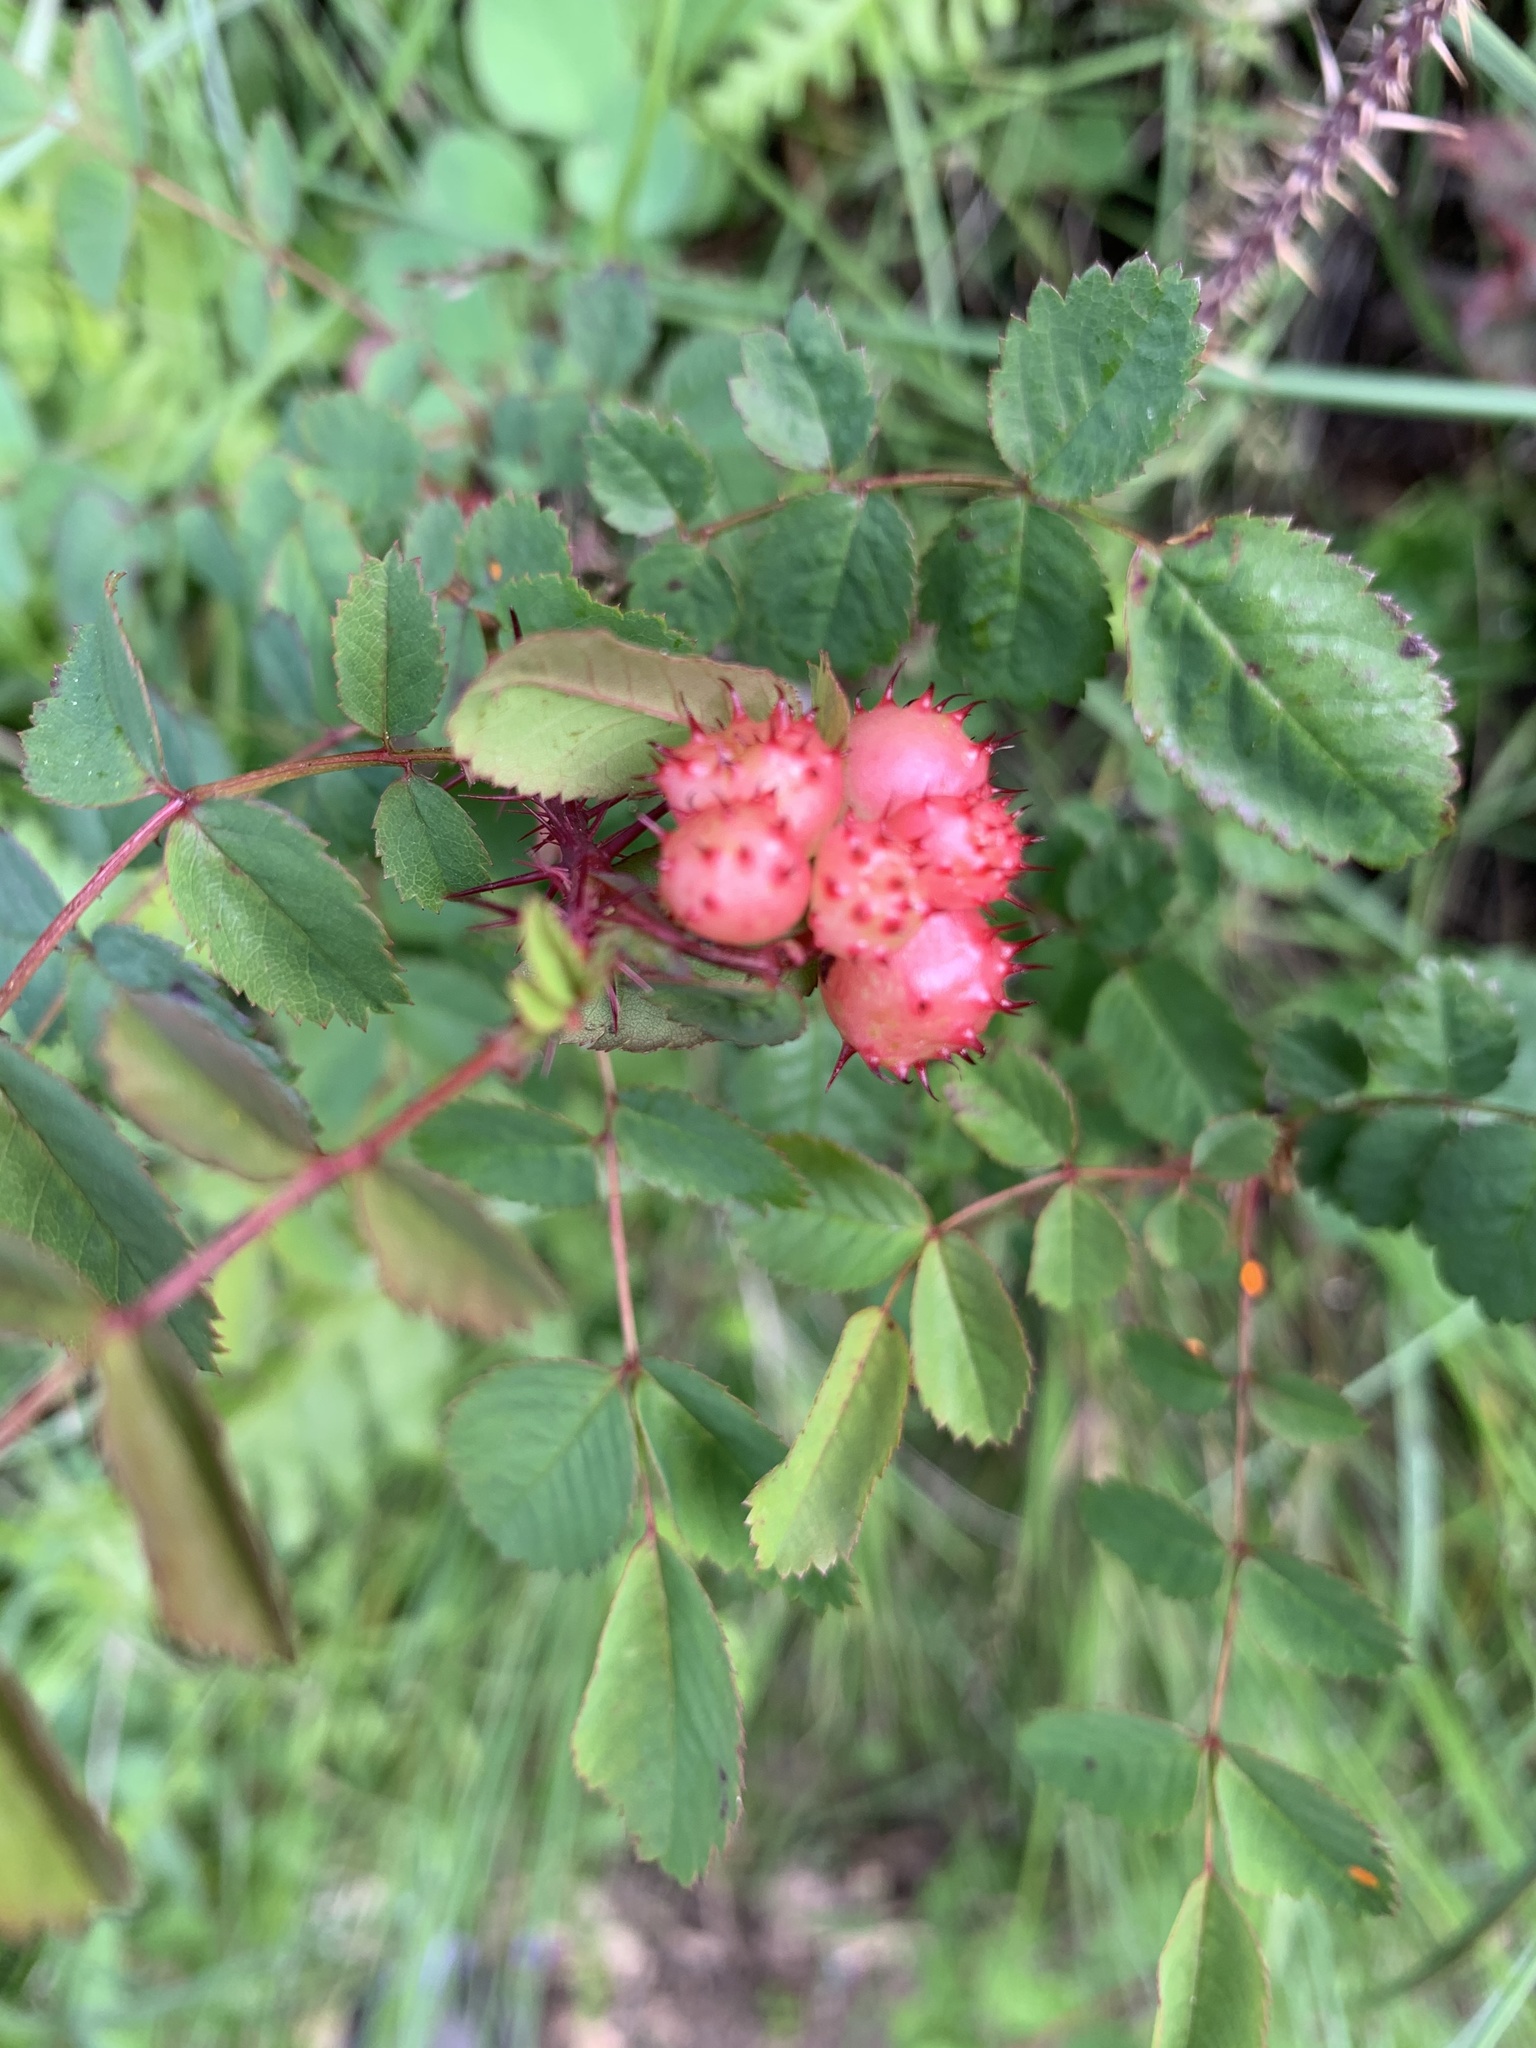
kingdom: Animalia
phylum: Arthropoda
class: Insecta
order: Hymenoptera
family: Cynipidae
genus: Diplolepis
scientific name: Diplolepis polita
